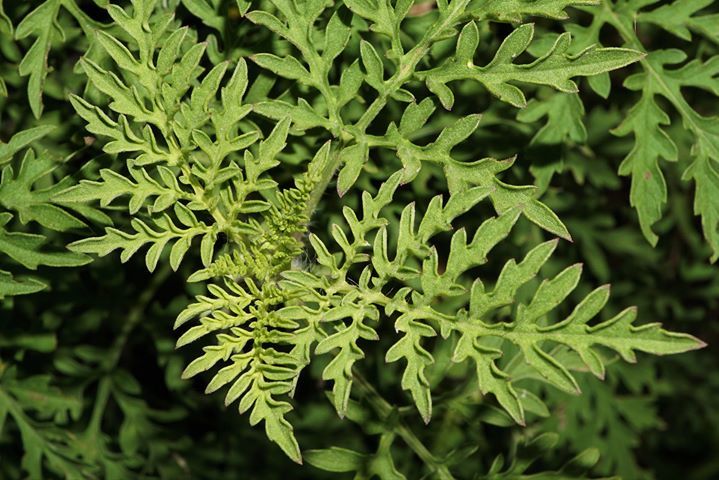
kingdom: Plantae
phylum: Tracheophyta
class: Magnoliopsida
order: Asterales
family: Asteraceae
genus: Ambrosia
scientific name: Ambrosia artemisiifolia
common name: Annual ragweed
